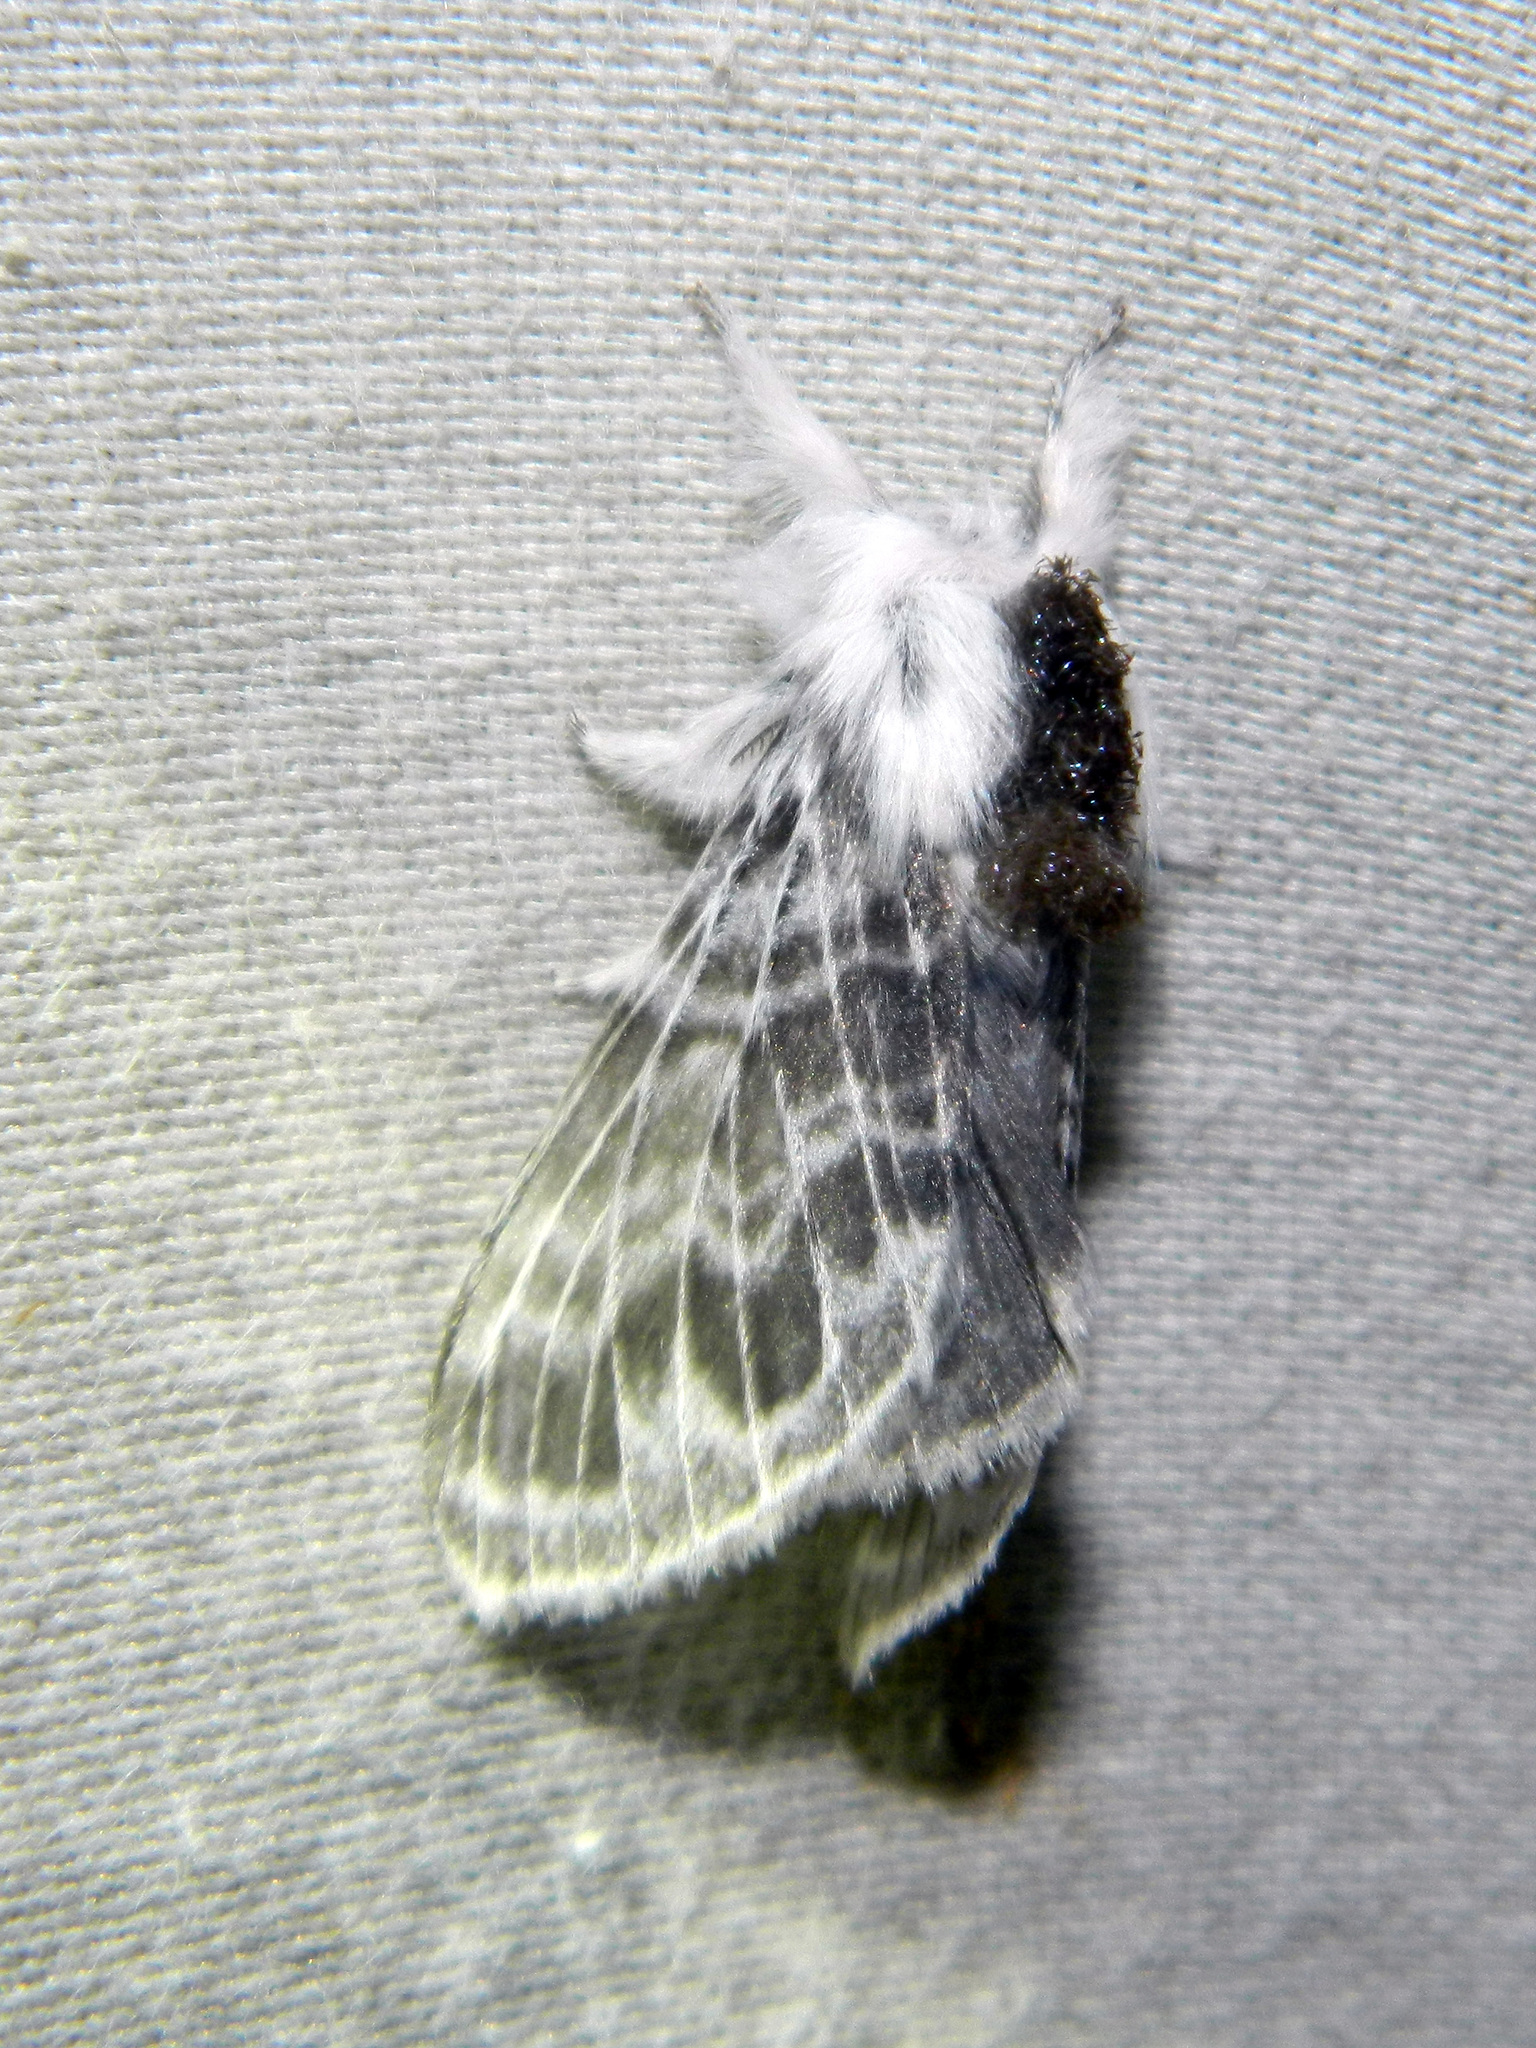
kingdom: Animalia
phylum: Arthropoda
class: Insecta
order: Lepidoptera
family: Lasiocampidae
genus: Tolype
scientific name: Tolype laricis
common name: Larch tolype moth
